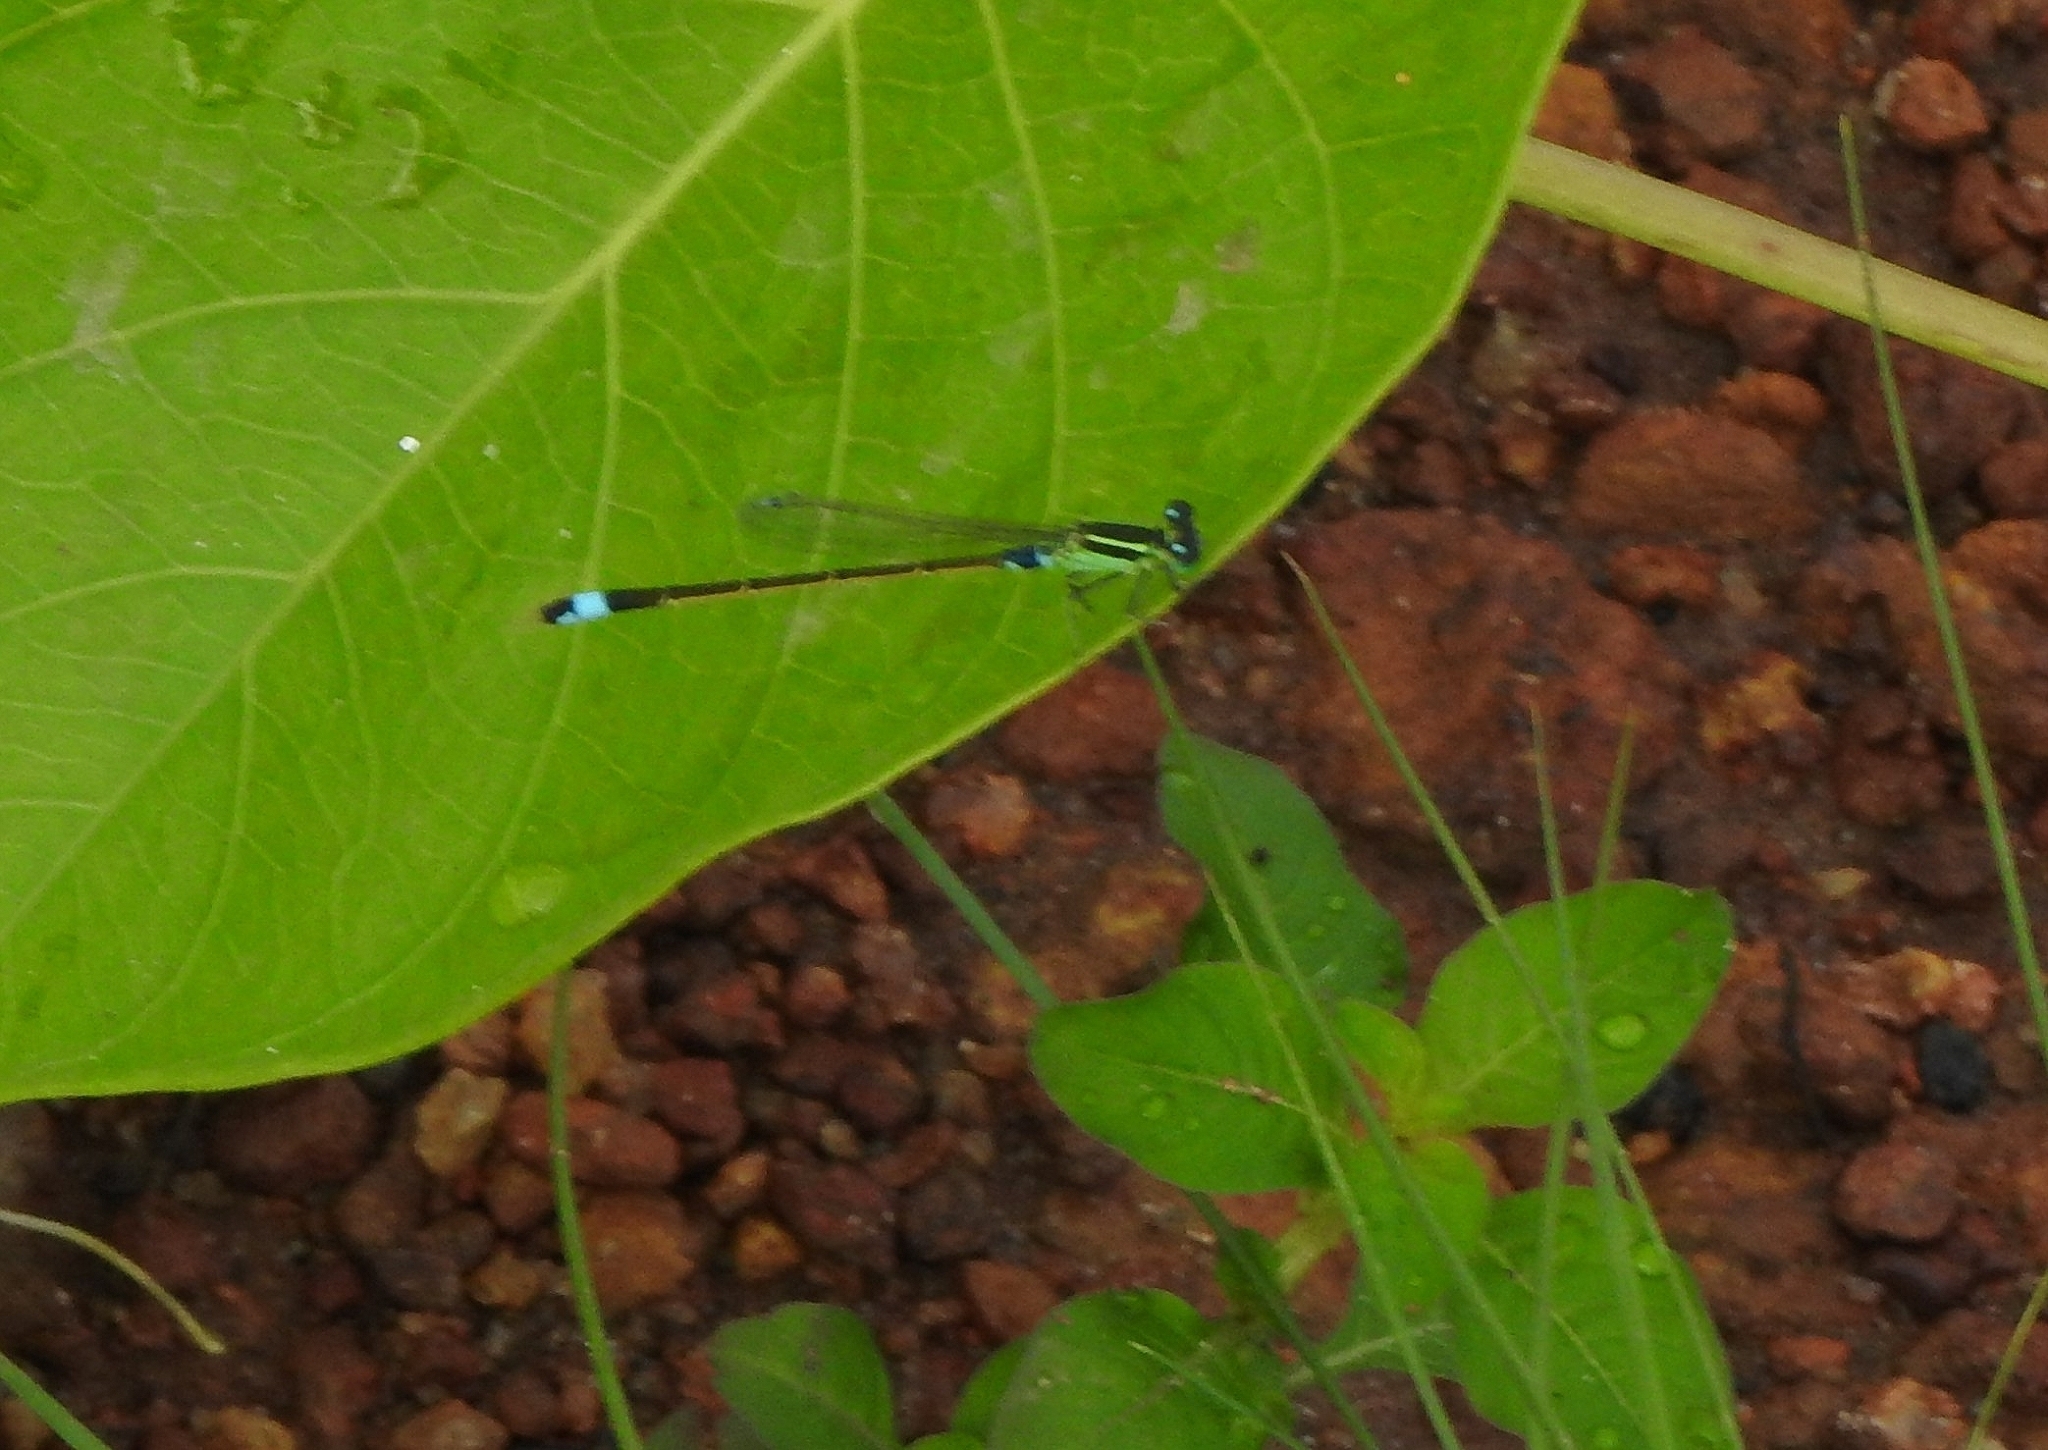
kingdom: Animalia
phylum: Arthropoda
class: Insecta
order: Odonata
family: Coenagrionidae
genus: Ischnura
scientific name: Ischnura senegalensis
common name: Tropical bluetail
